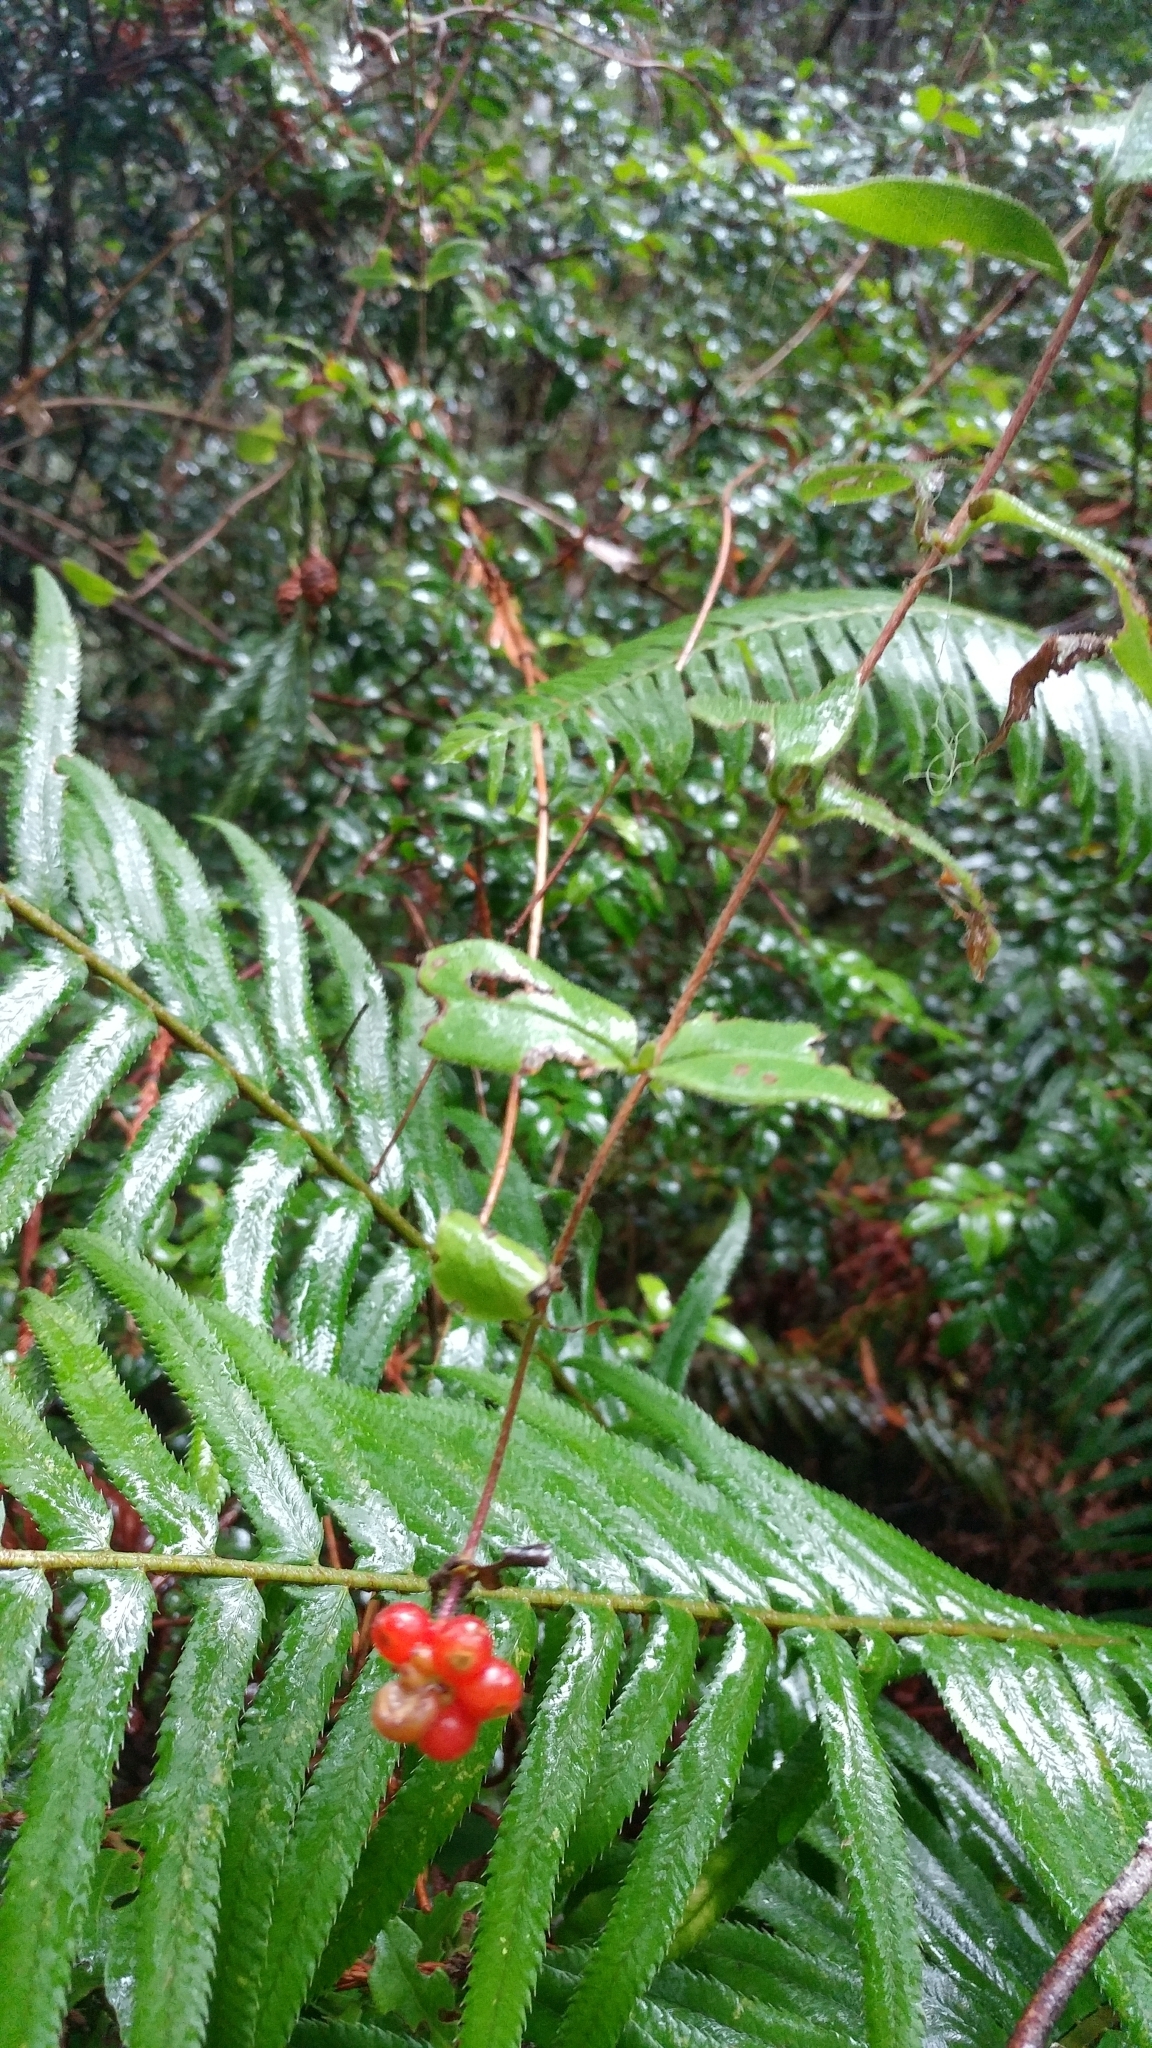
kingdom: Plantae
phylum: Tracheophyta
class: Magnoliopsida
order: Dipsacales
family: Caprifoliaceae
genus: Lonicera
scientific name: Lonicera hispidula
